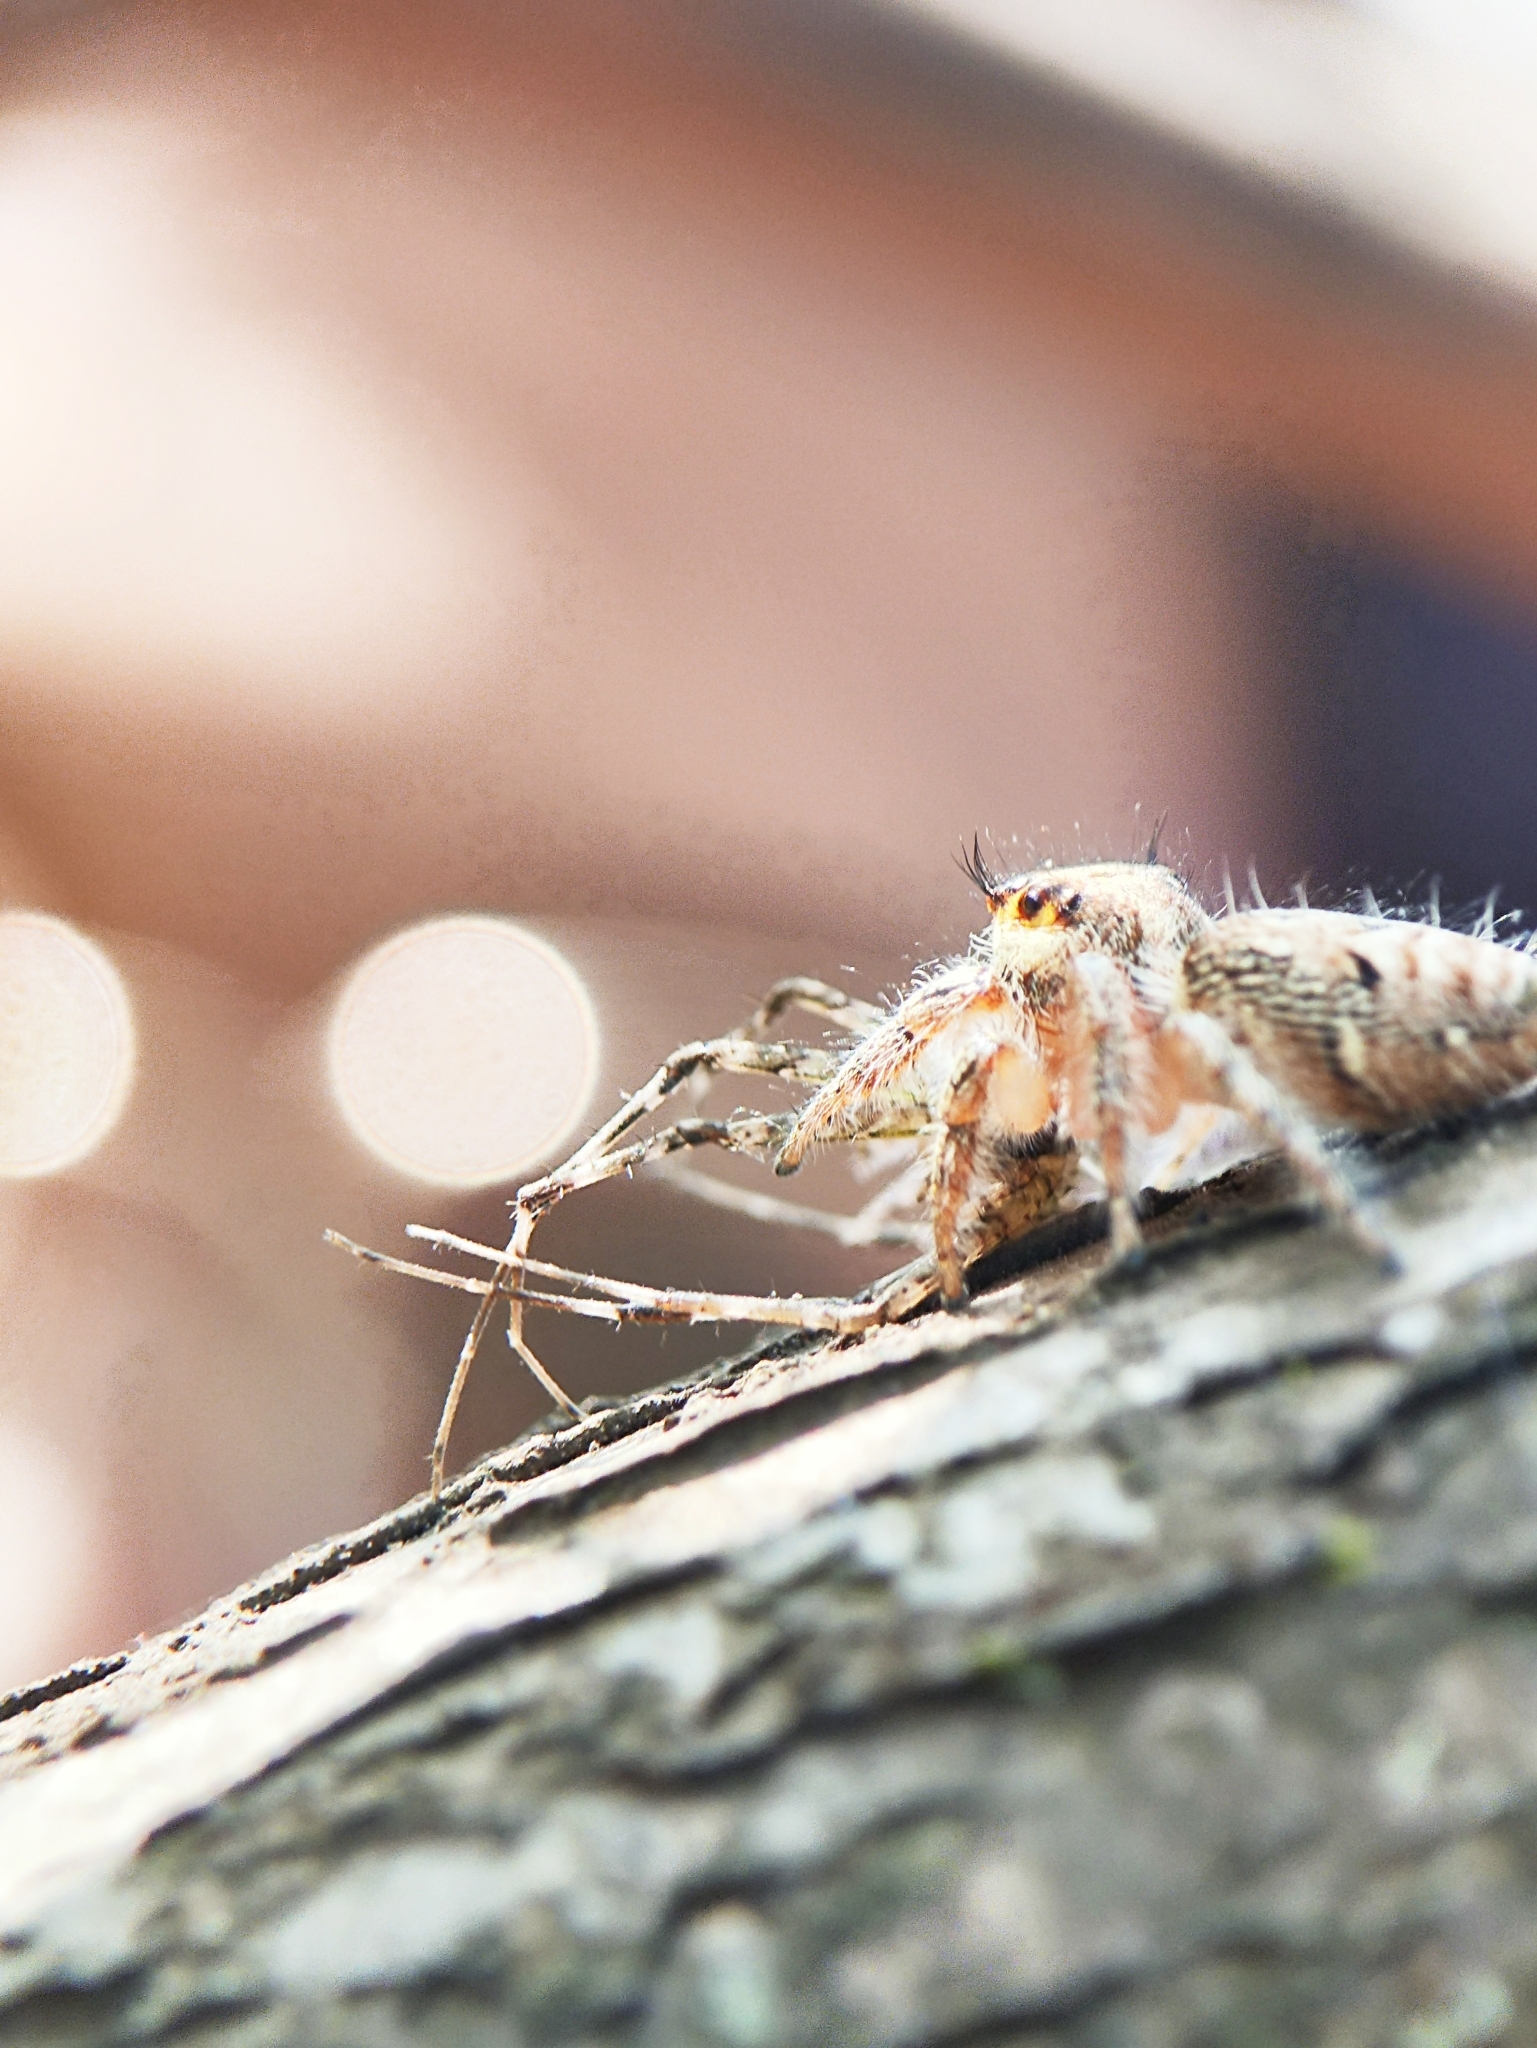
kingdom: Animalia
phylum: Arthropoda
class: Arachnida
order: Araneae
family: Salticidae
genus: Hyllus
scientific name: Hyllus semicupreus
